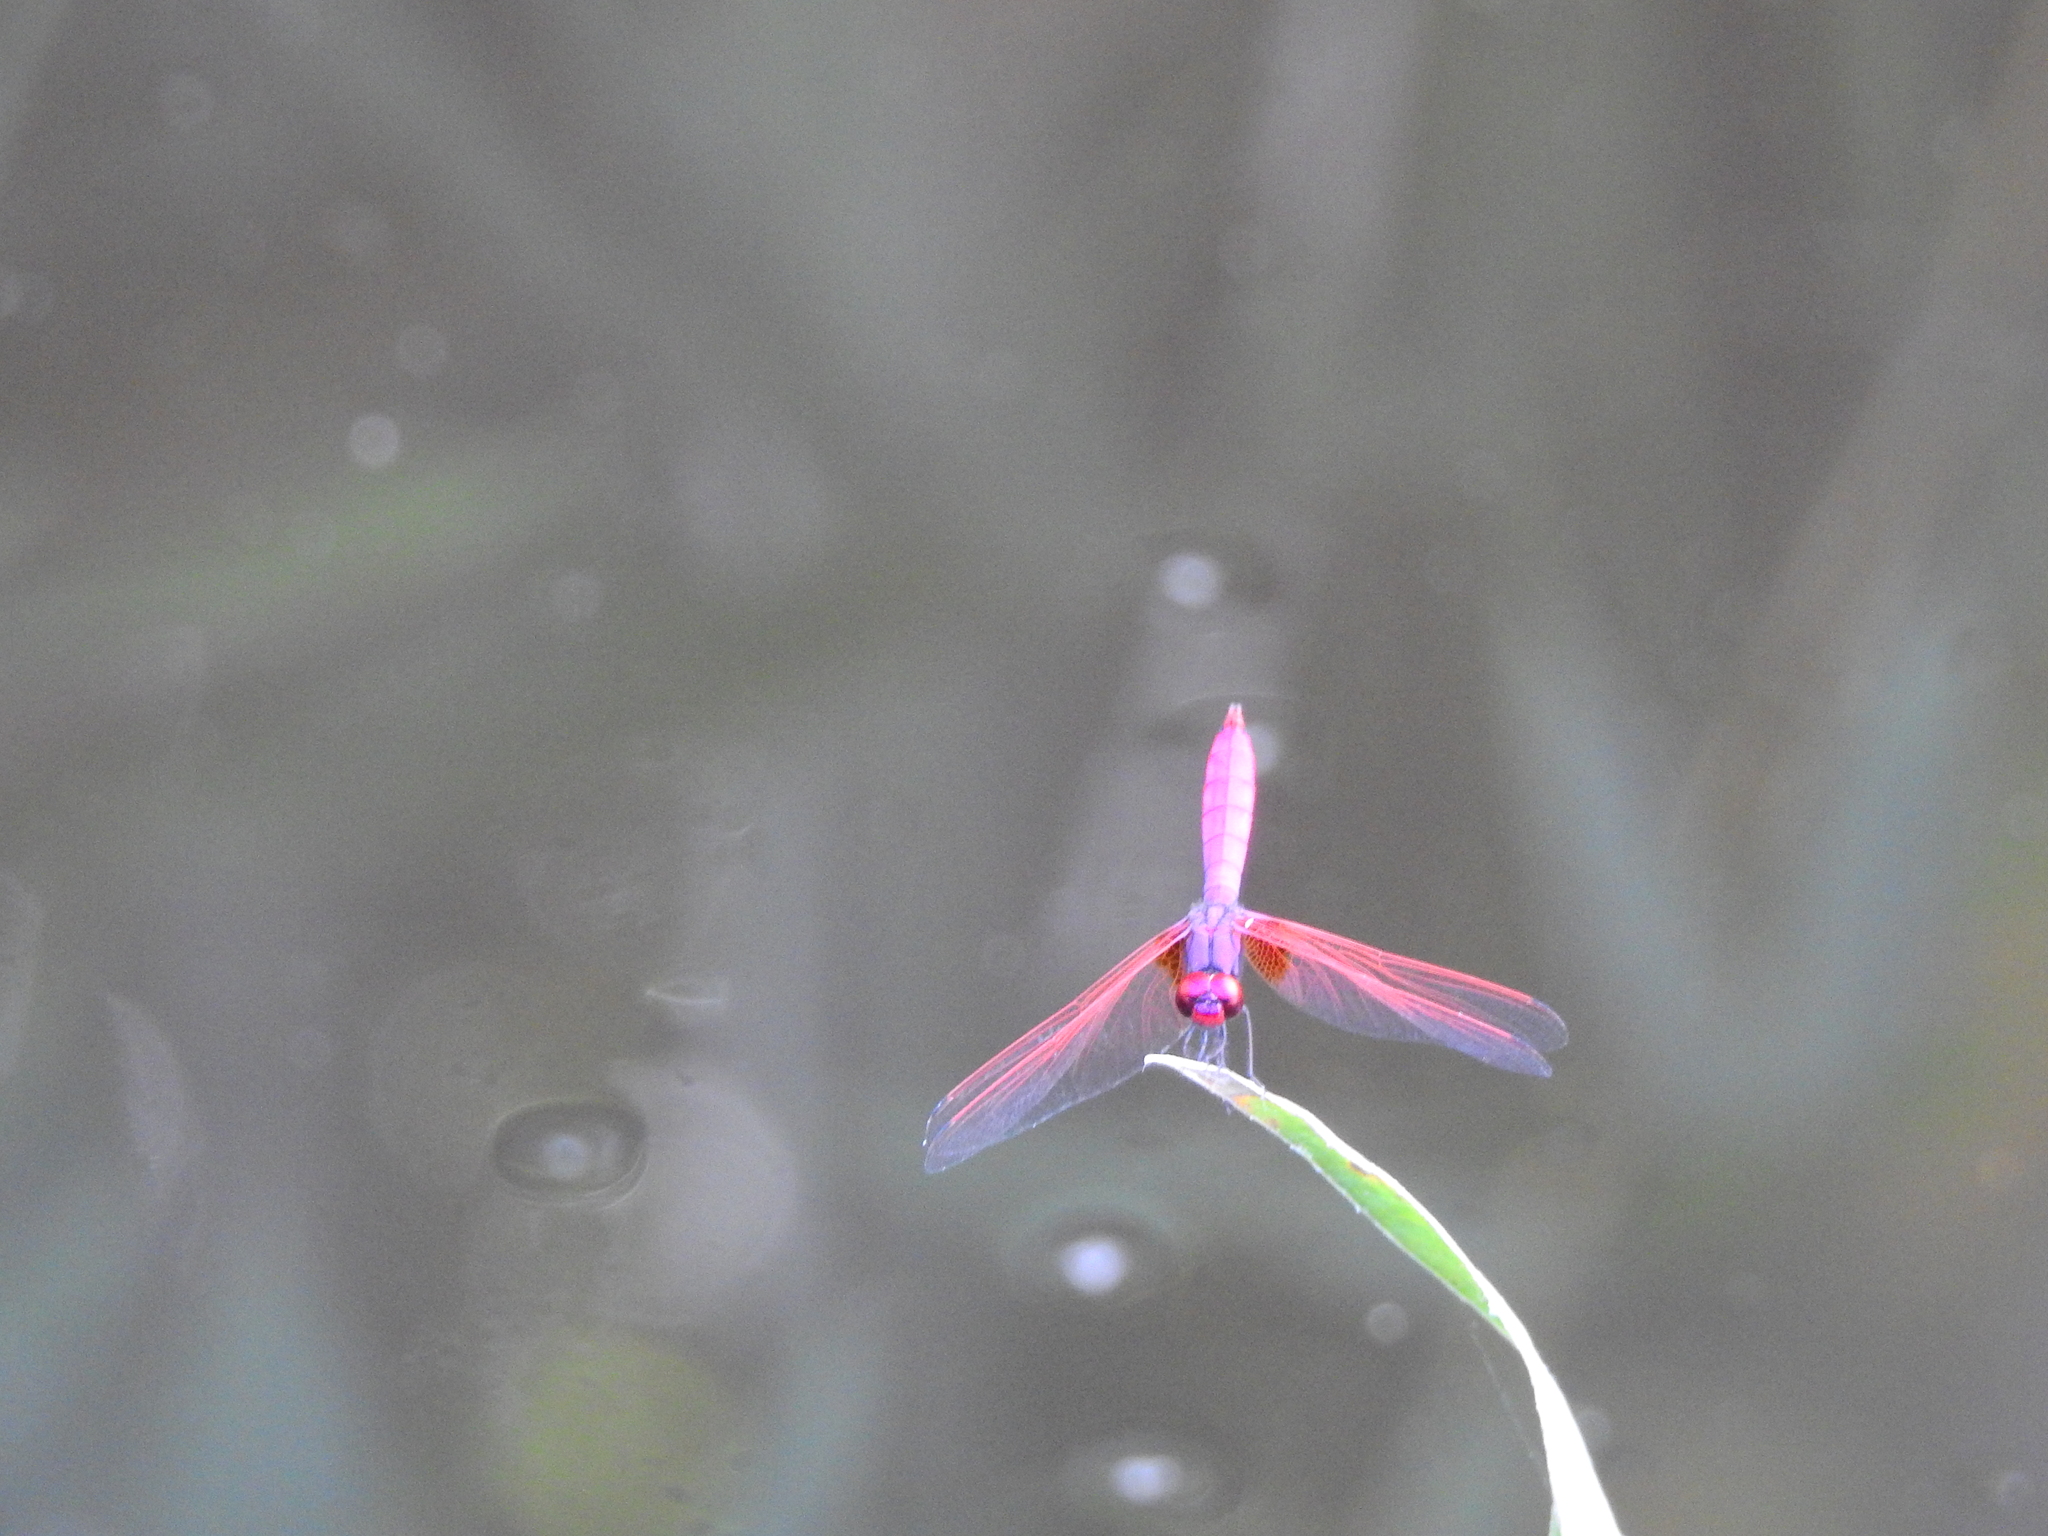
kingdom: Animalia
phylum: Arthropoda
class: Insecta
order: Odonata
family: Libellulidae
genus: Trithemis
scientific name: Trithemis aurora
